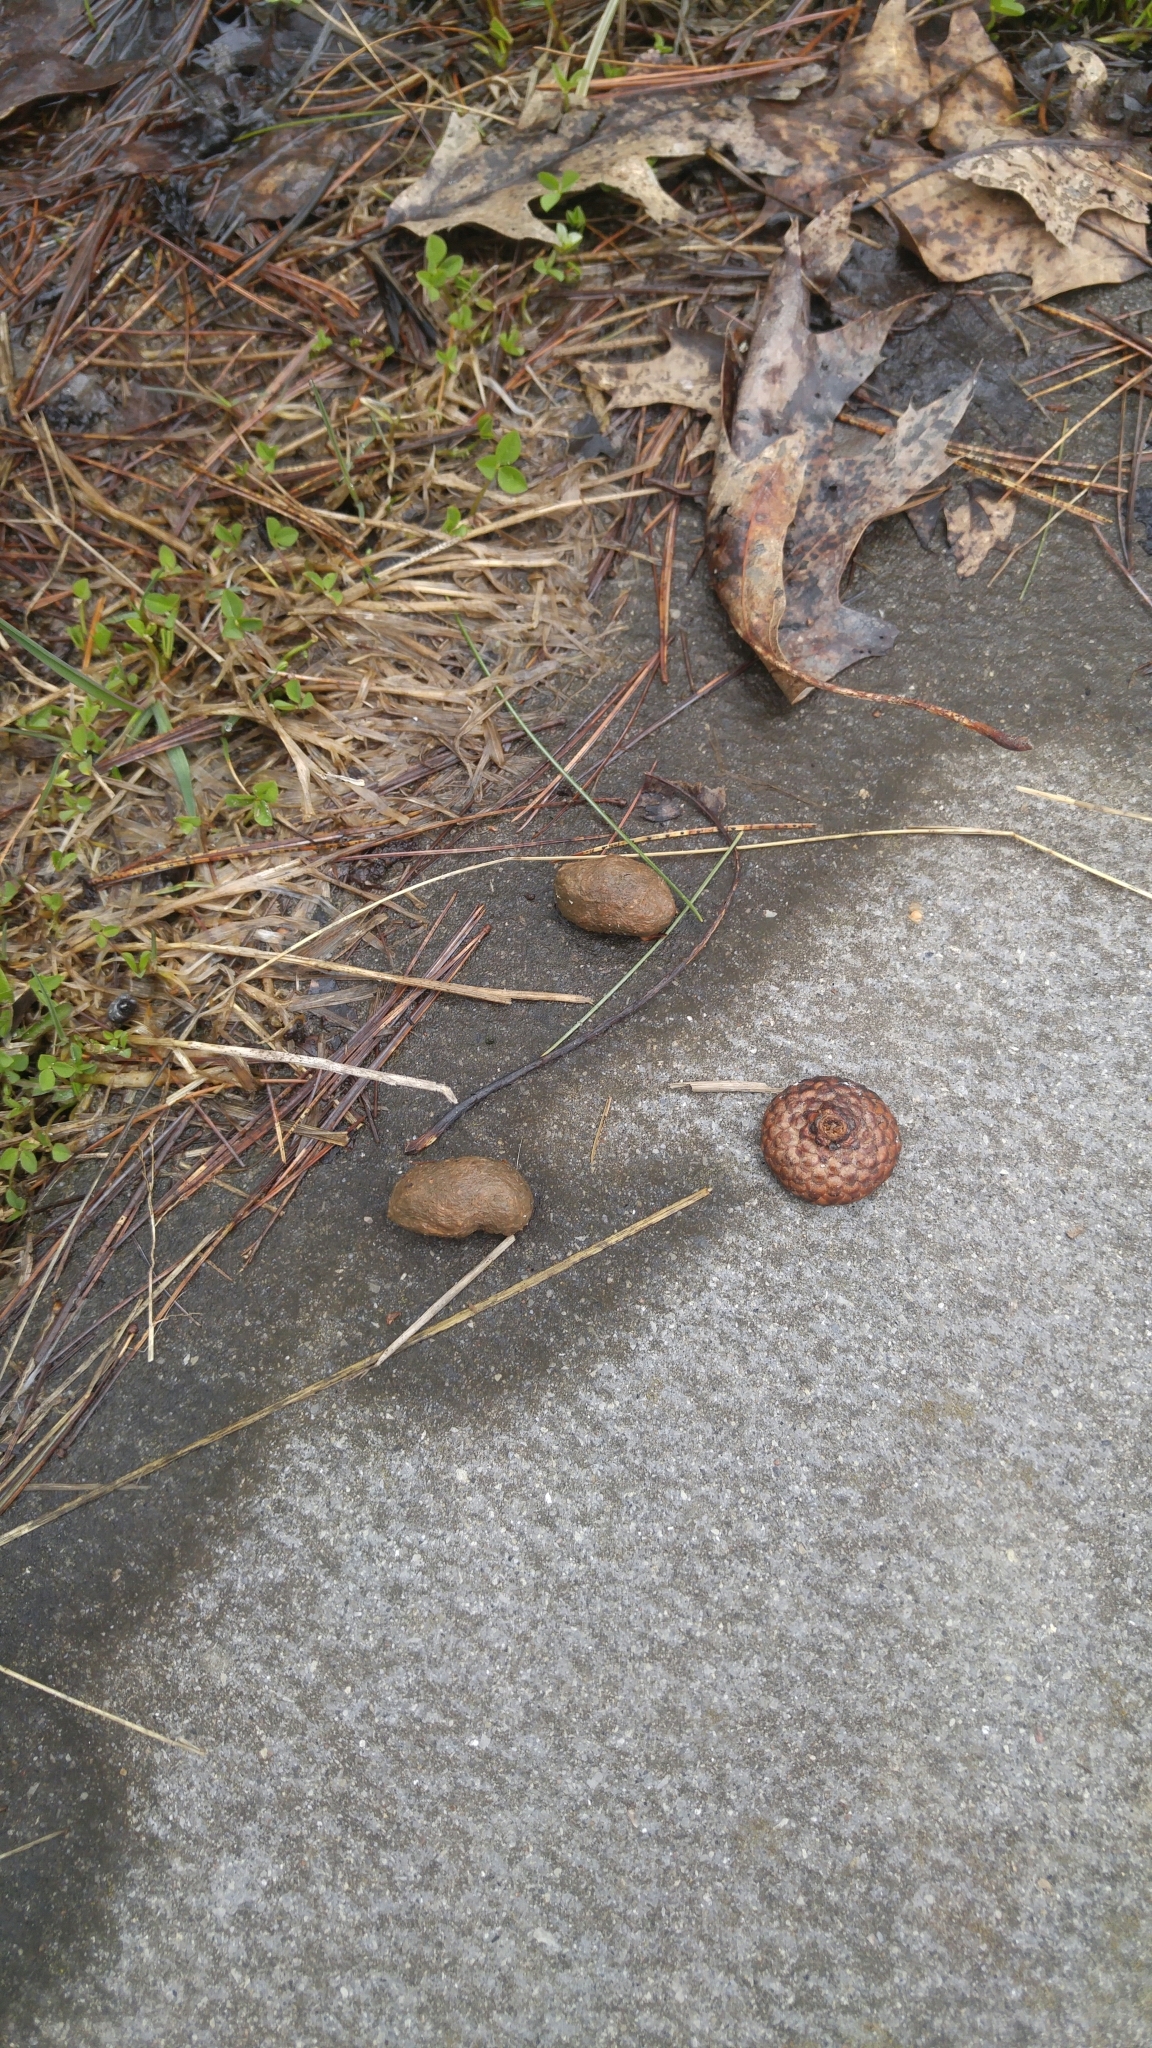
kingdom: Animalia
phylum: Chordata
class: Mammalia
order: Rodentia
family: Erethizontidae
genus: Erethizon
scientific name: Erethizon dorsatus
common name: North american porcupine
